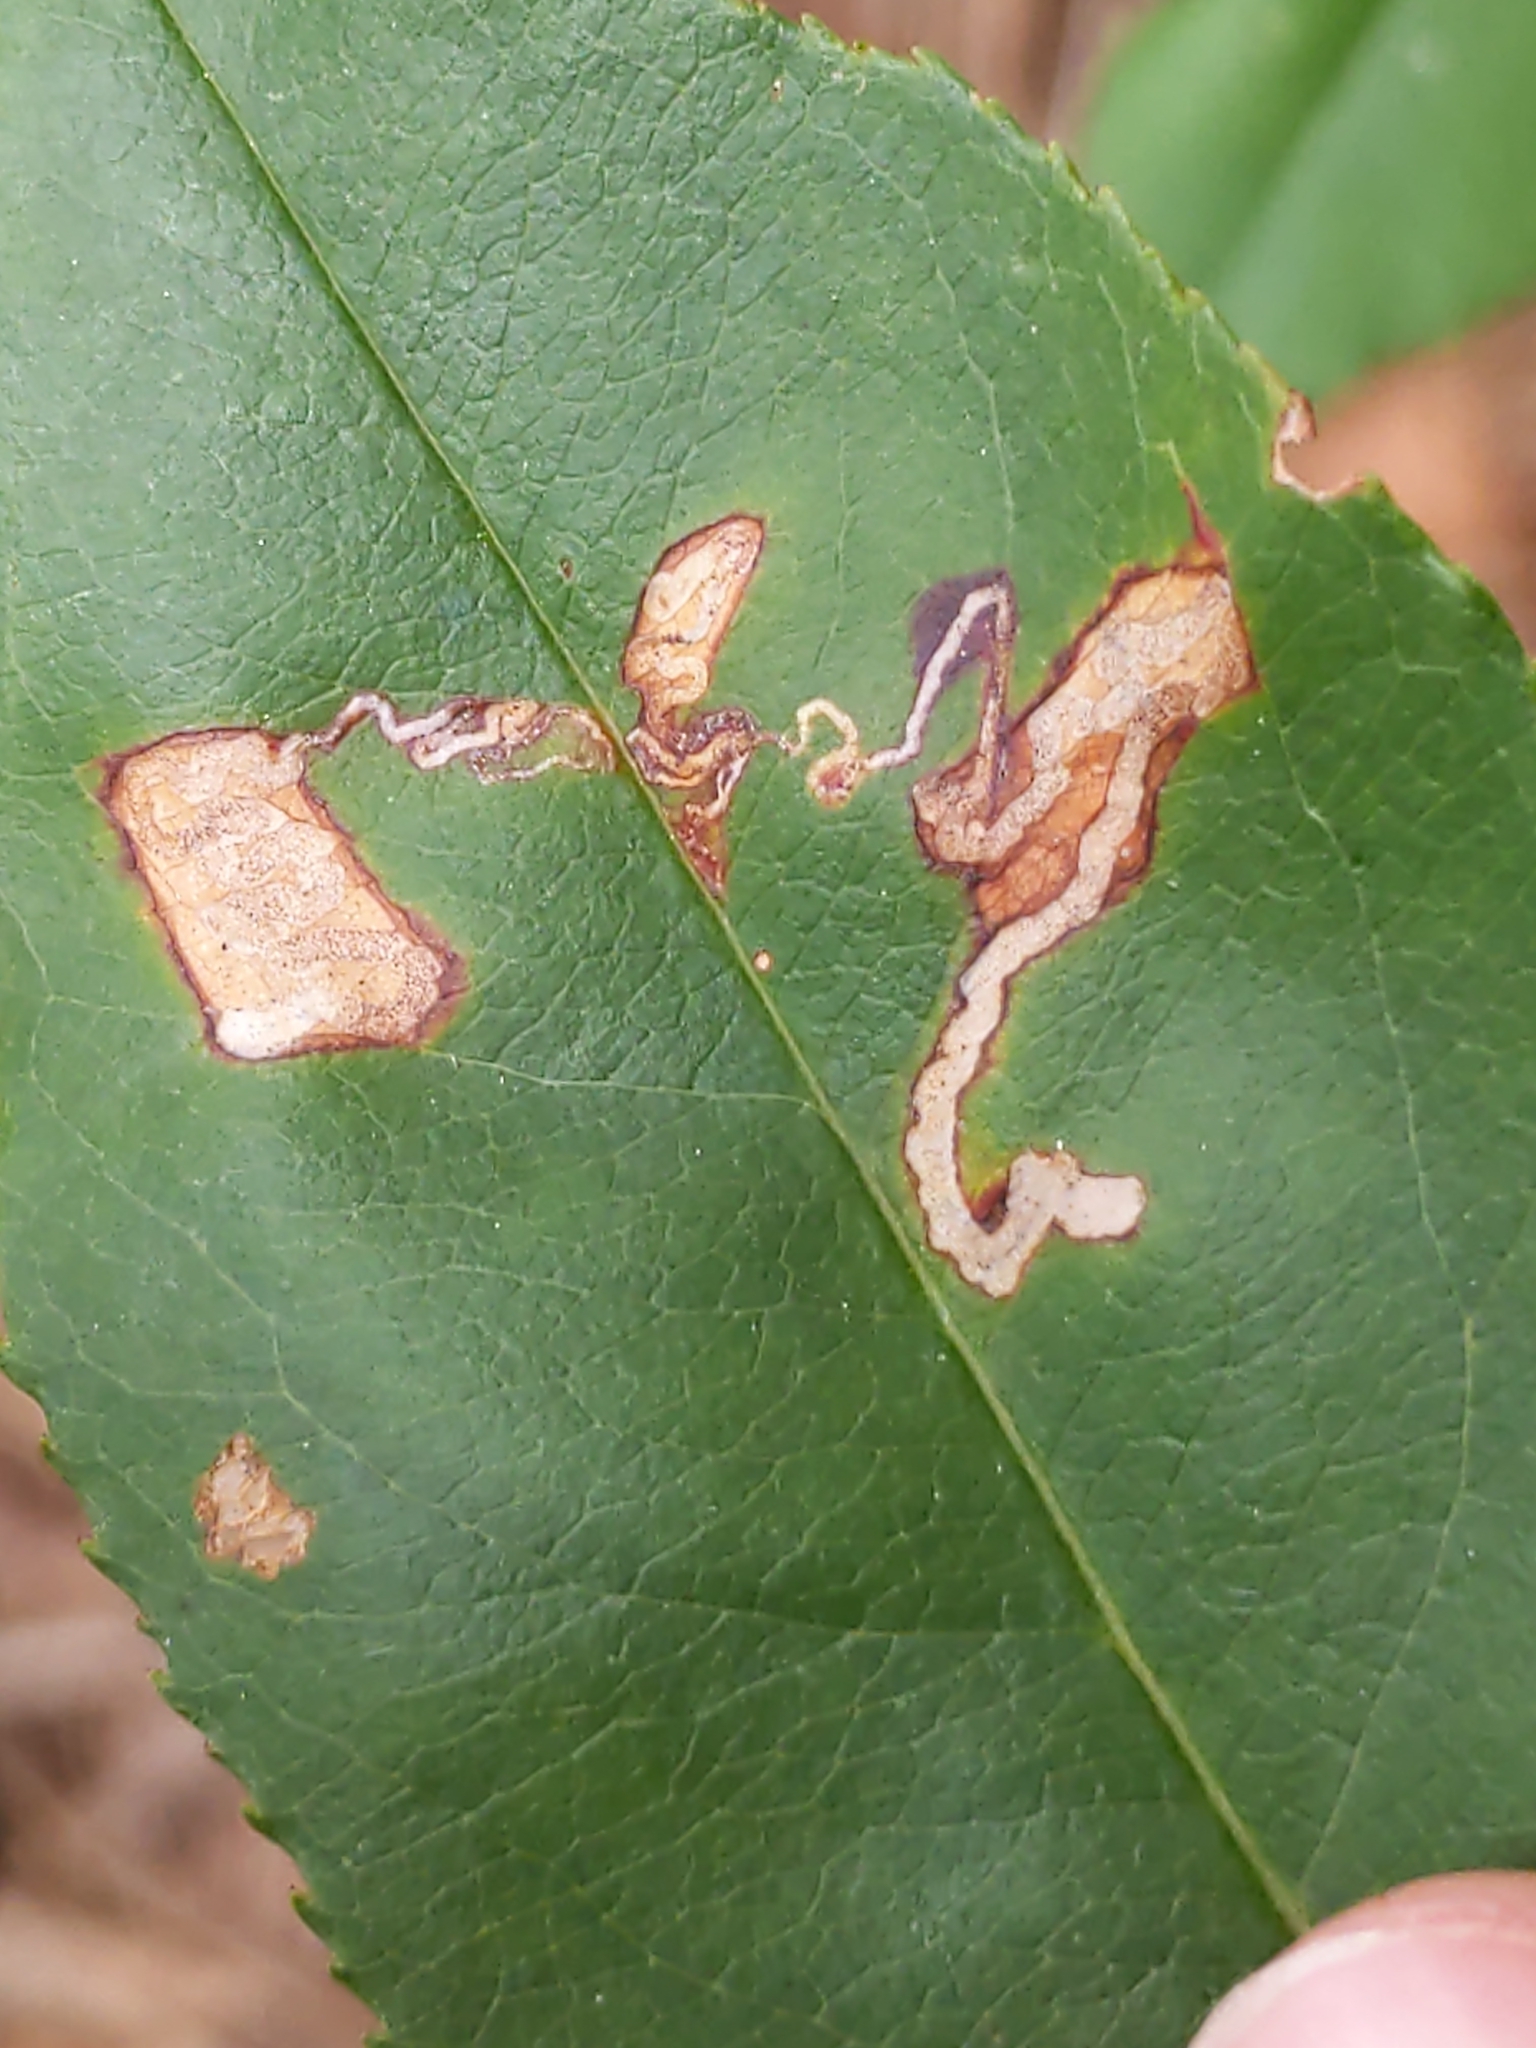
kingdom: Animalia
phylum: Arthropoda
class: Insecta
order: Lepidoptera
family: Nepticulidae
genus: Stigmella
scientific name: Stigmella prunifoliella
